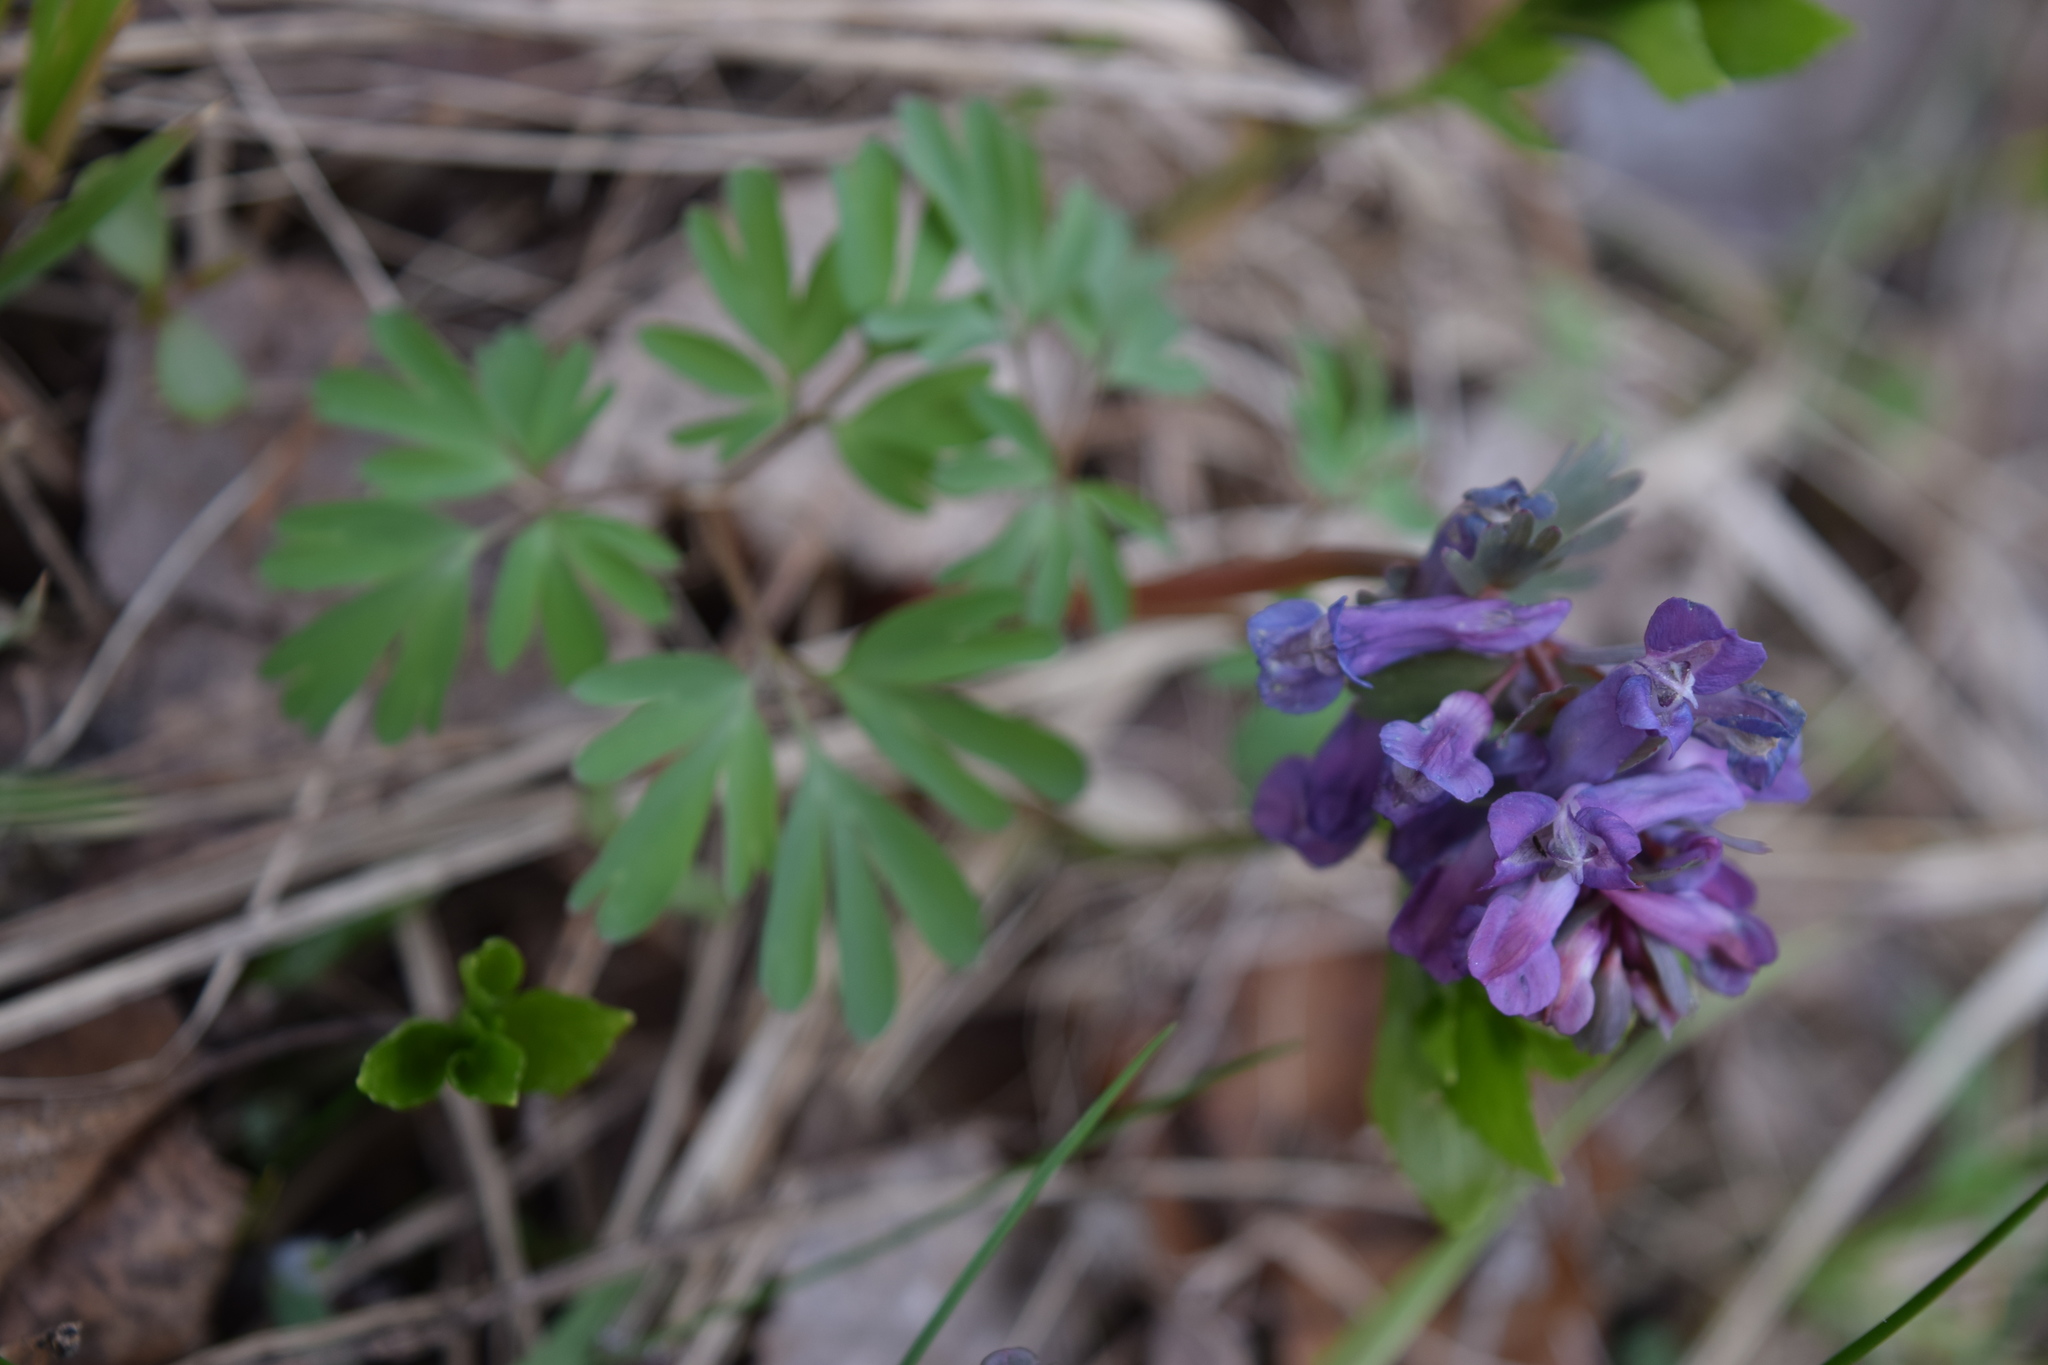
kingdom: Plantae
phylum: Tracheophyta
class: Magnoliopsida
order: Ranunculales
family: Papaveraceae
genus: Corydalis
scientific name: Corydalis solida
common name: Bird-in-a-bush
